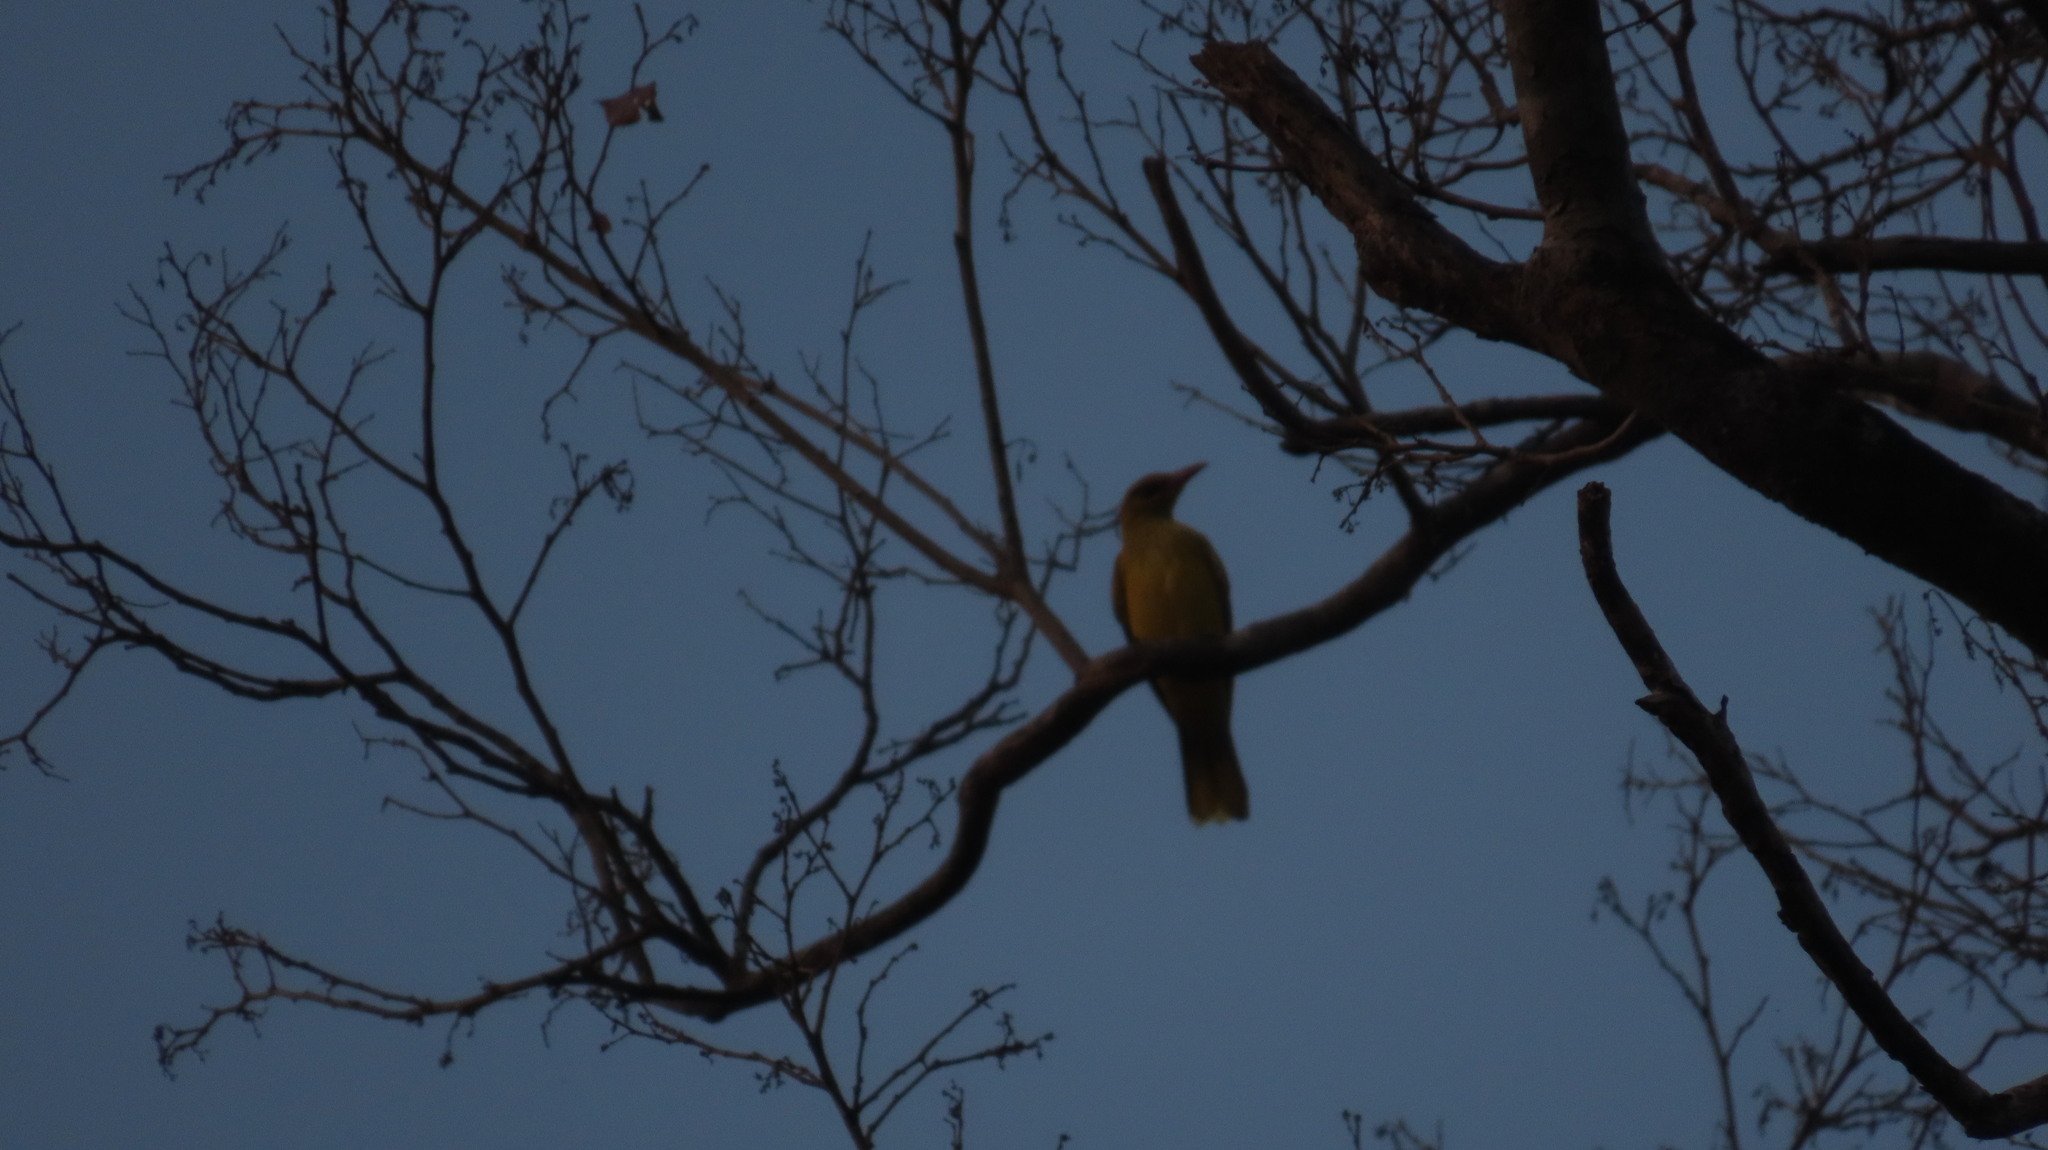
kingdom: Animalia
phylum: Chordata
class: Aves
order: Passeriformes
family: Oriolidae
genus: Oriolus
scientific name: Oriolus kundoo
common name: Indian golden oriole
